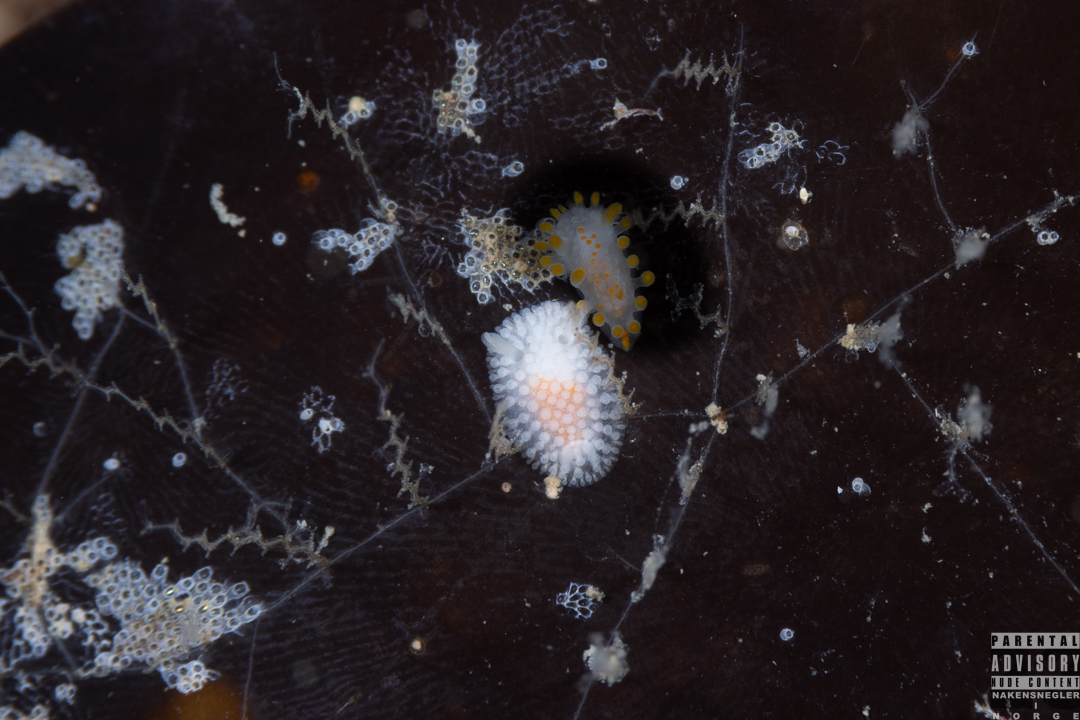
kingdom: Animalia
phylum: Mollusca
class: Gastropoda
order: Nudibranchia
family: Onchidorididae
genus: Onchidoris
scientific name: Onchidoris muricata
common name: Rough doris
